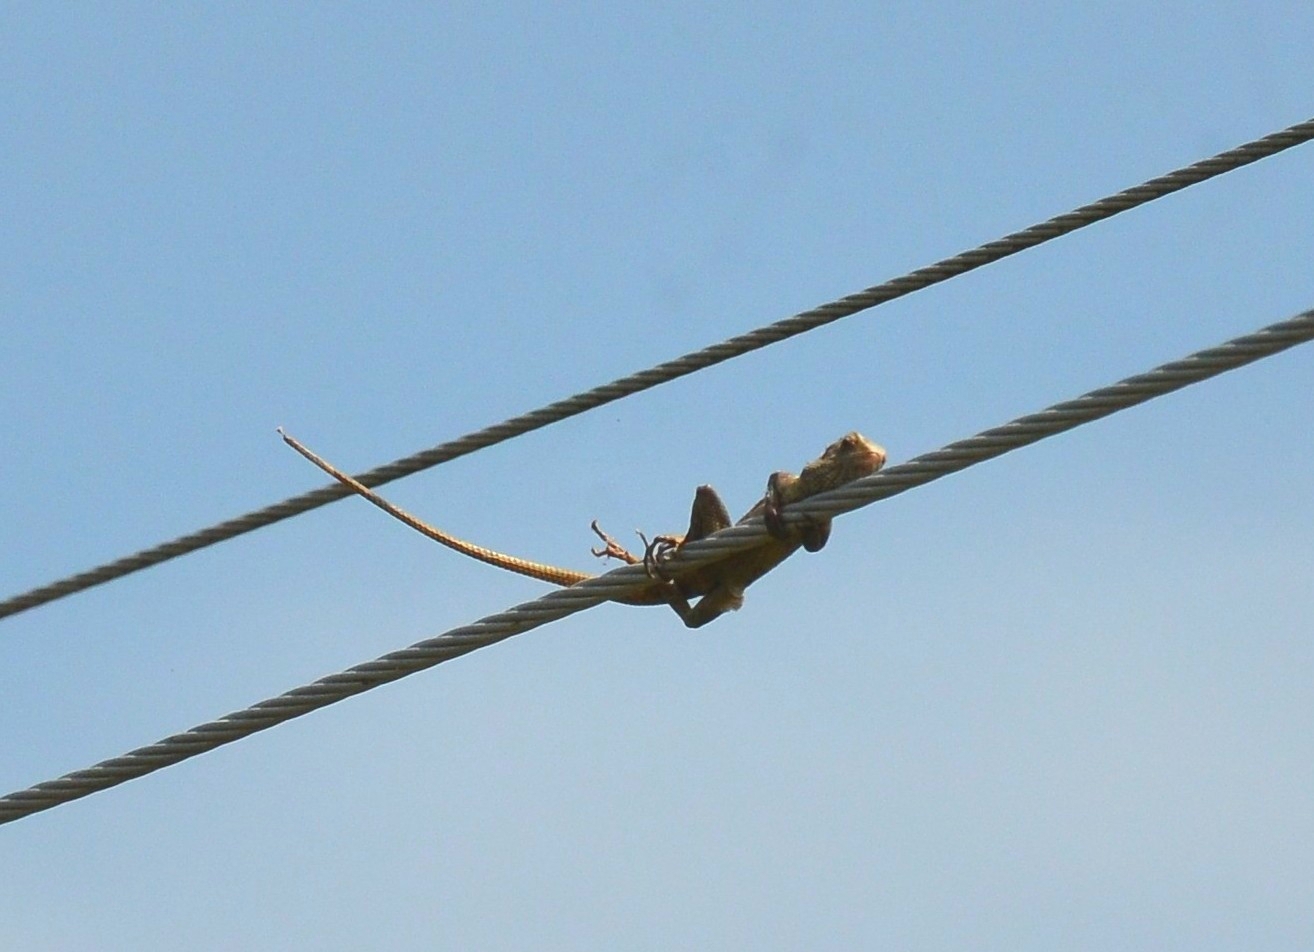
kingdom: Animalia
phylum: Chordata
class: Squamata
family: Agamidae
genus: Calotes
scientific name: Calotes versicolor
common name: Oriental garden lizard
